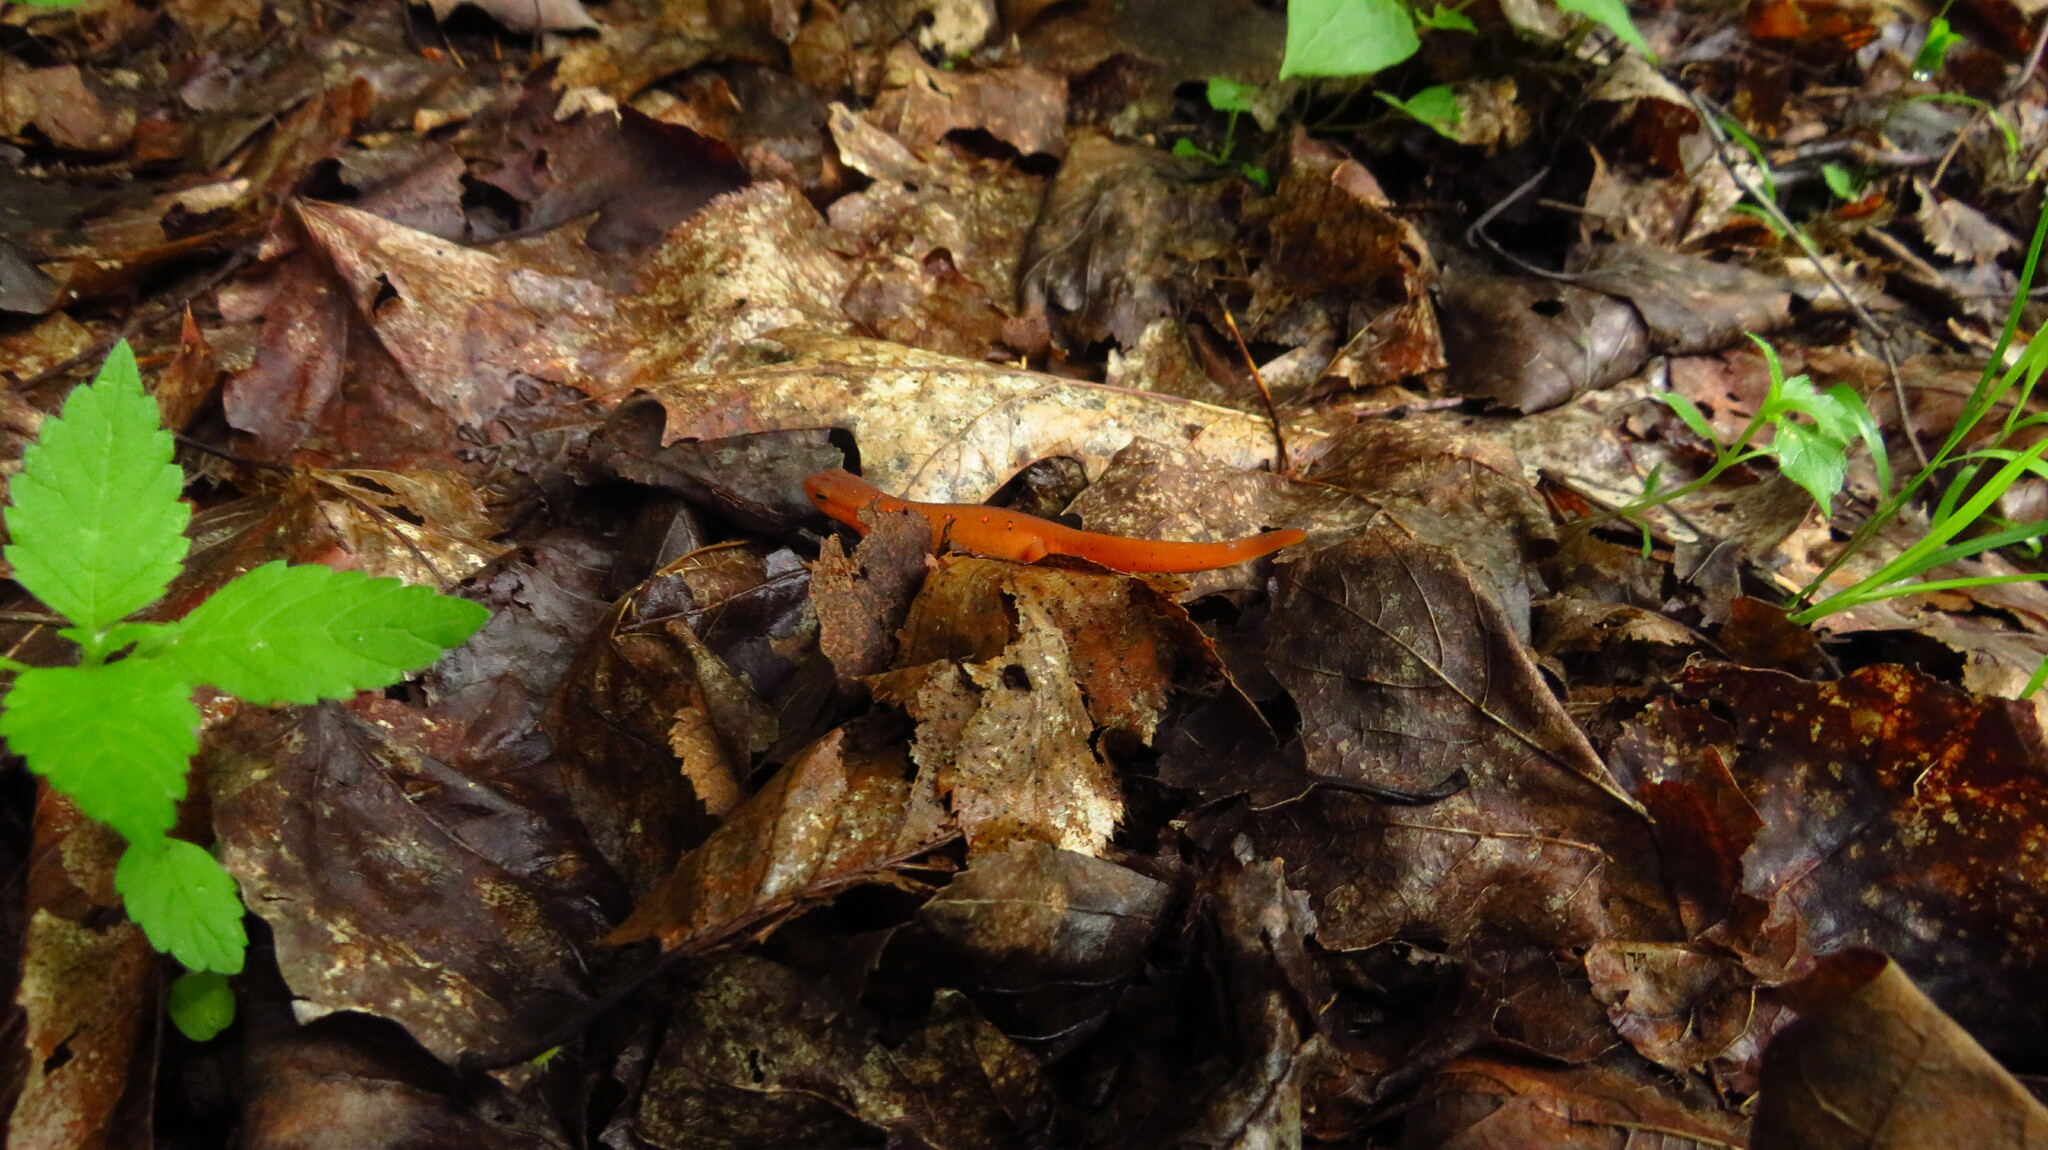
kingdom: Animalia
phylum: Chordata
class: Amphibia
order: Caudata
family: Salamandridae
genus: Notophthalmus
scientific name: Notophthalmus viridescens
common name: Eastern newt
